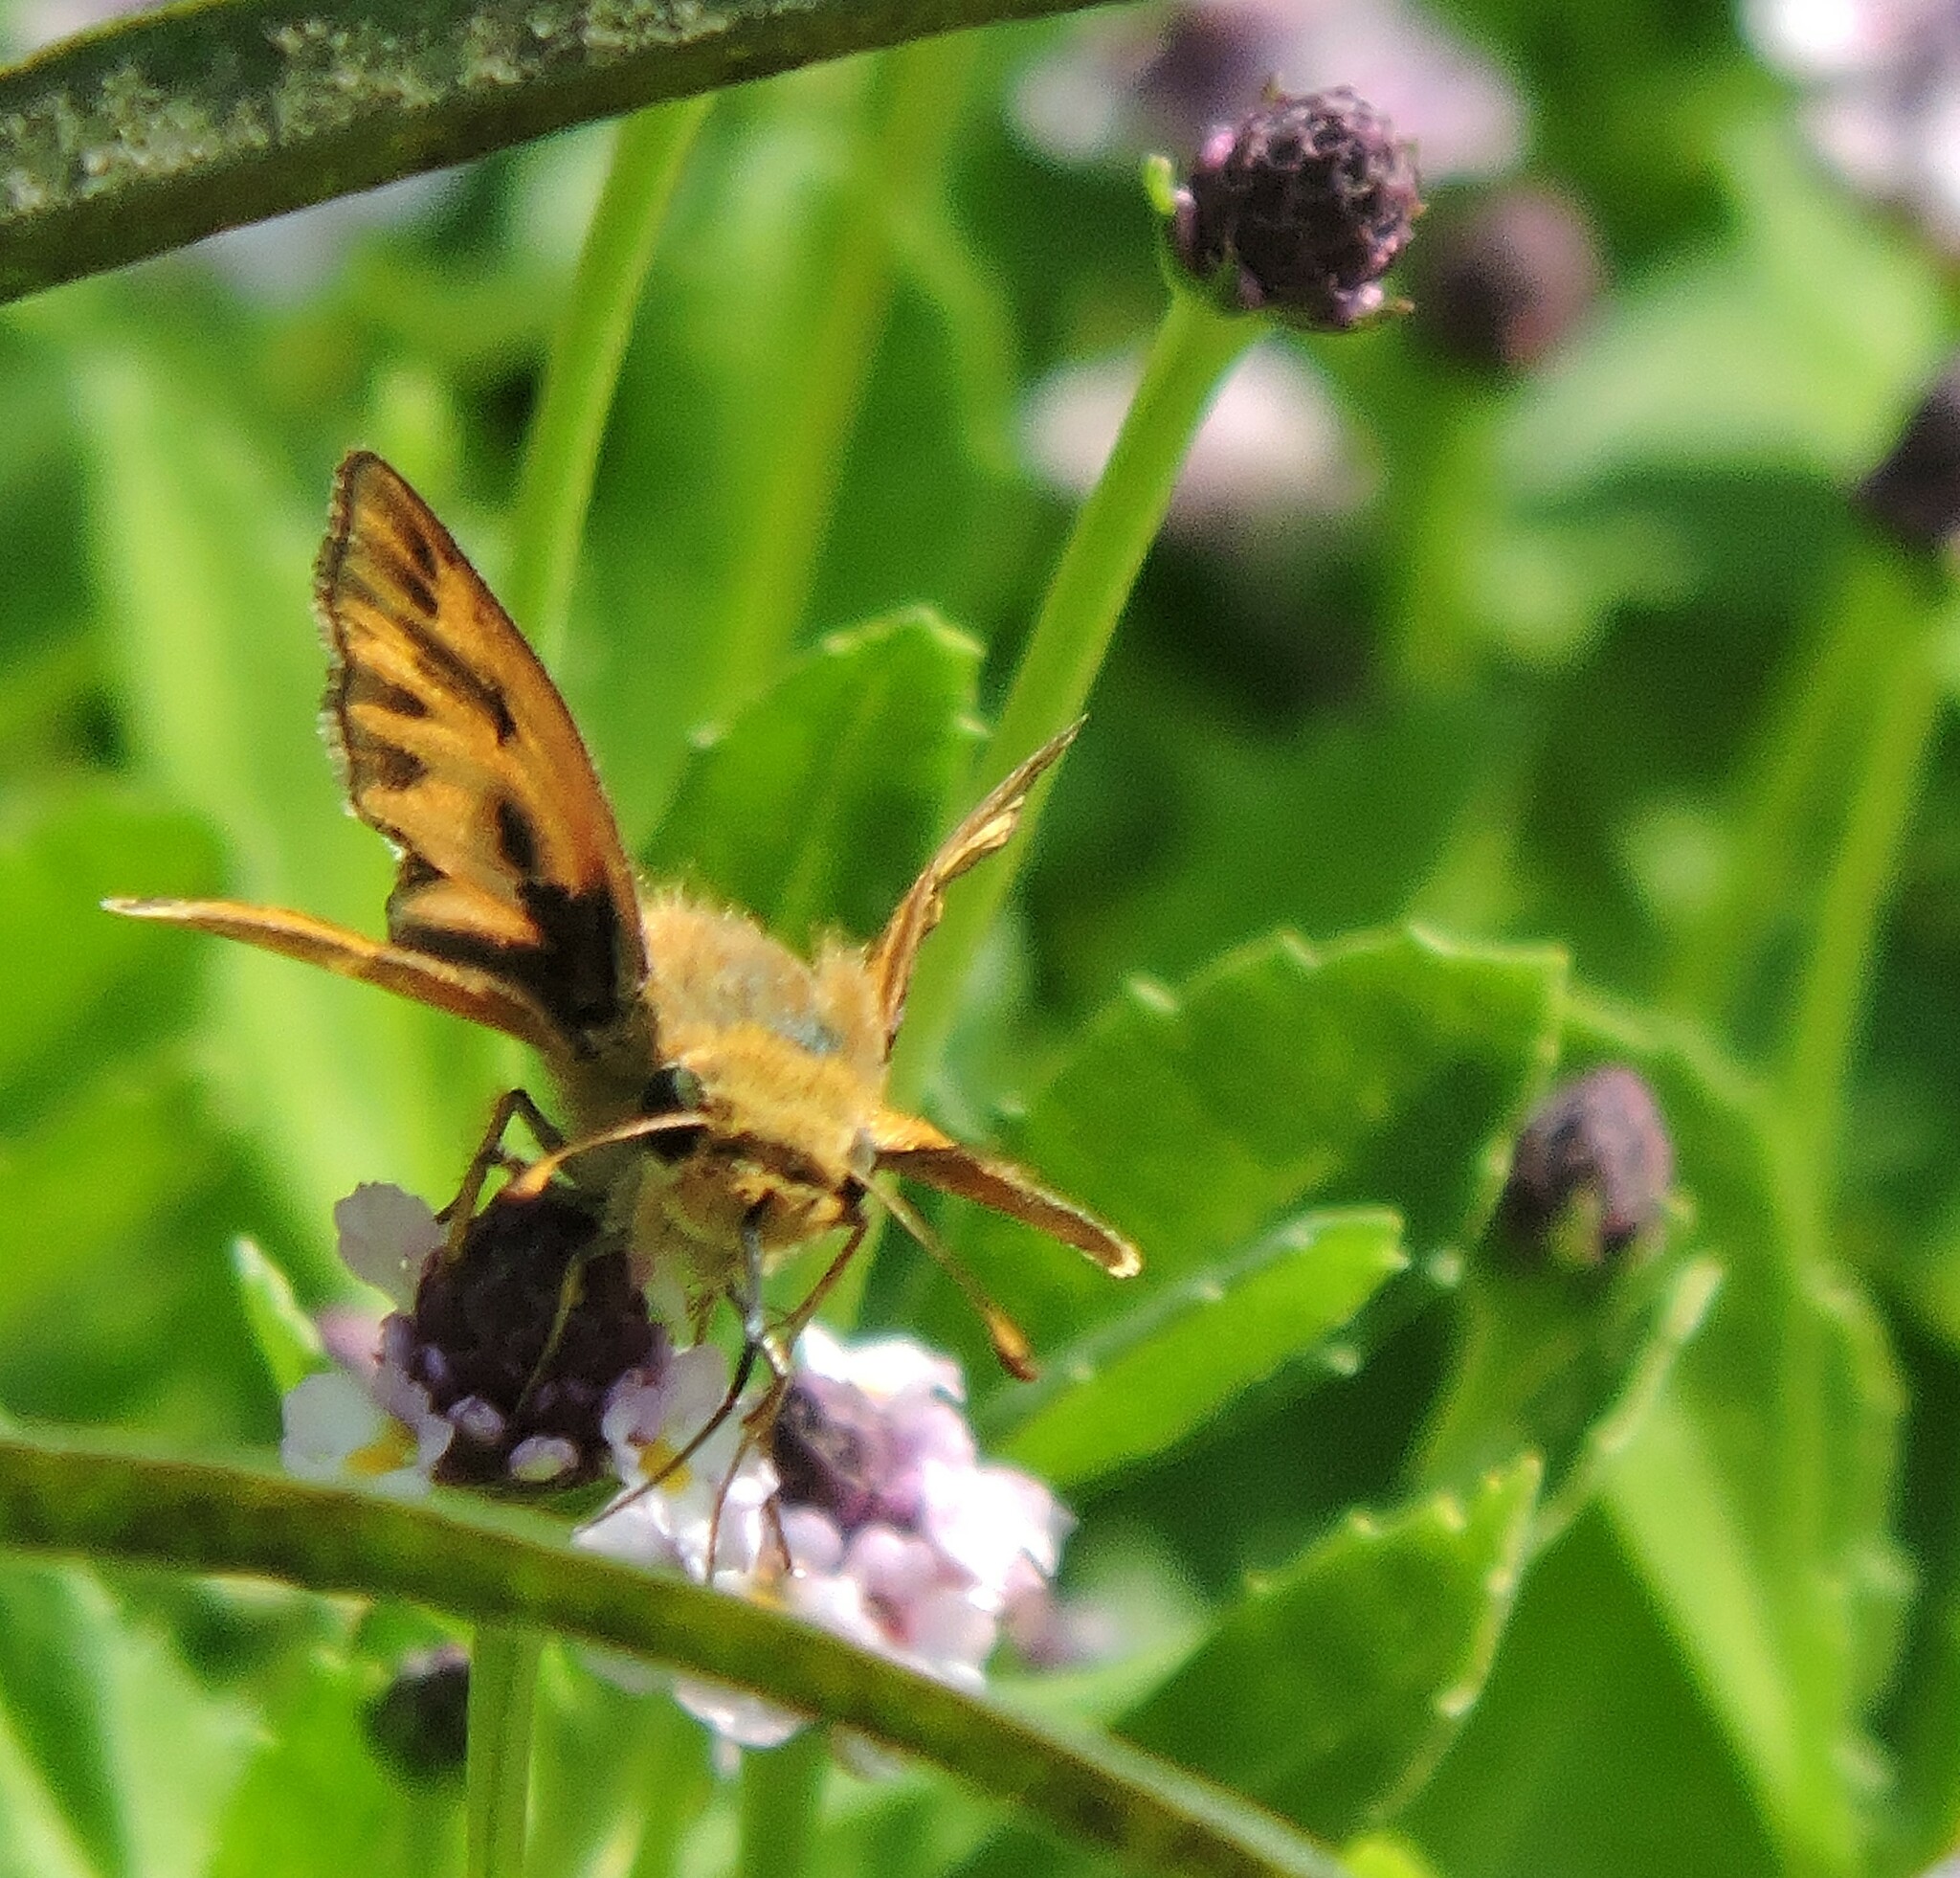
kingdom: Animalia
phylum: Arthropoda
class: Insecta
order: Lepidoptera
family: Hesperiidae
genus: Hylephila
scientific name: Hylephila phyleus
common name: Fiery skipper
